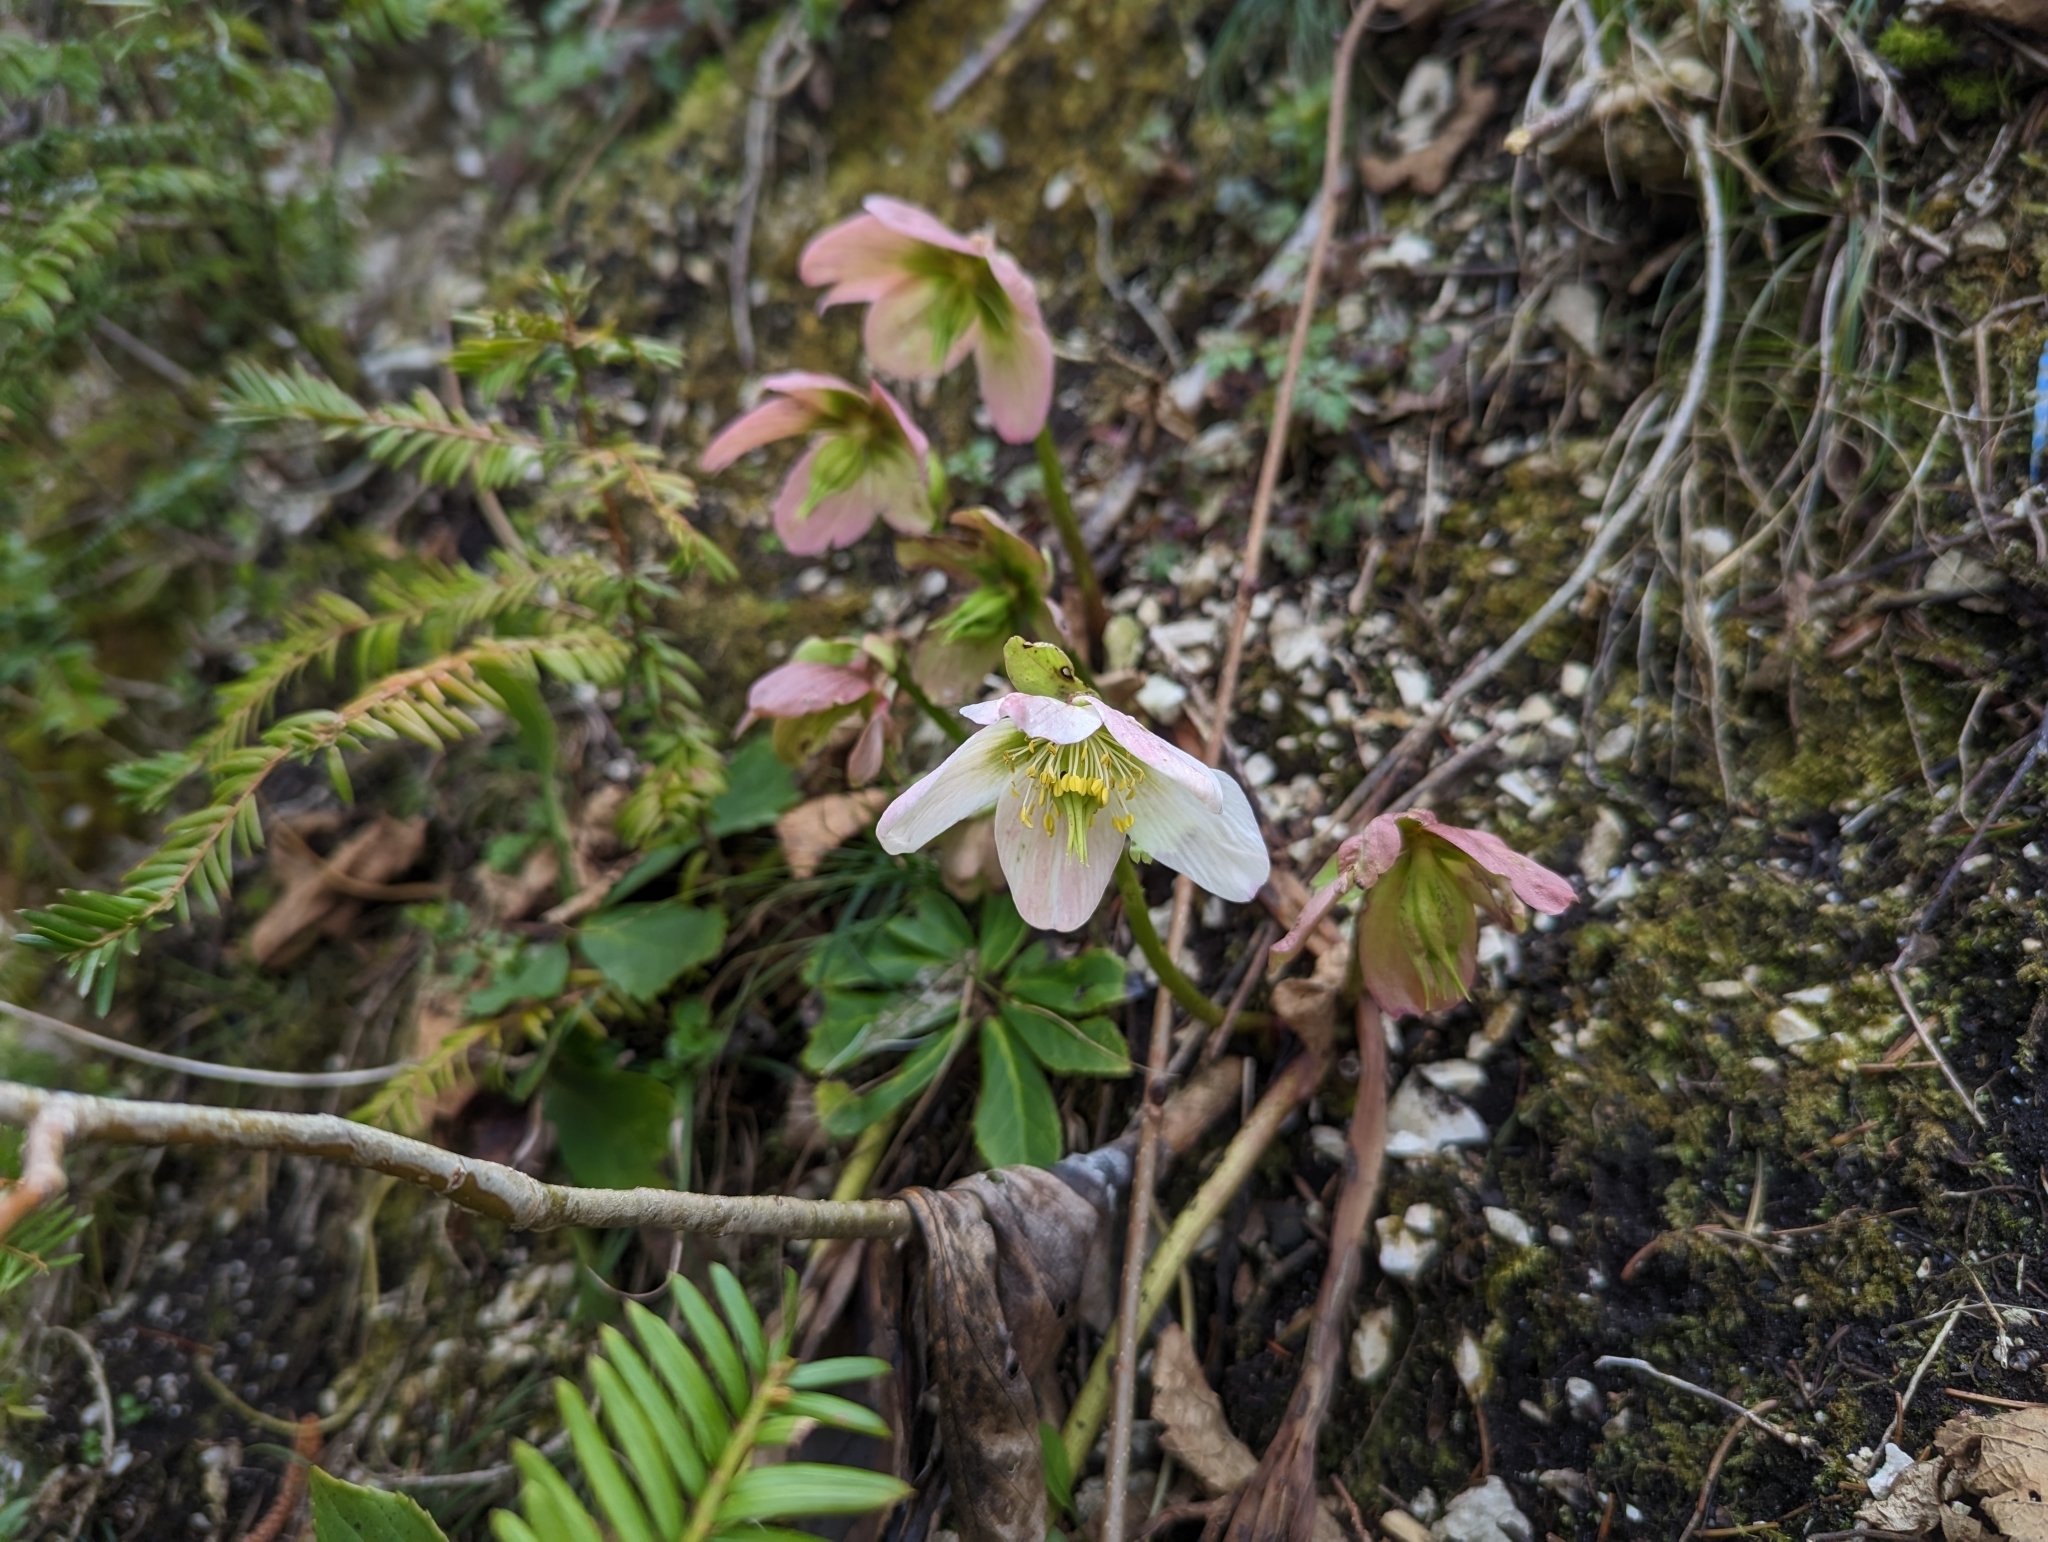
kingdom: Plantae
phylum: Tracheophyta
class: Magnoliopsida
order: Ranunculales
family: Ranunculaceae
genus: Helleborus
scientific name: Helleborus niger
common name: Black hellebore
